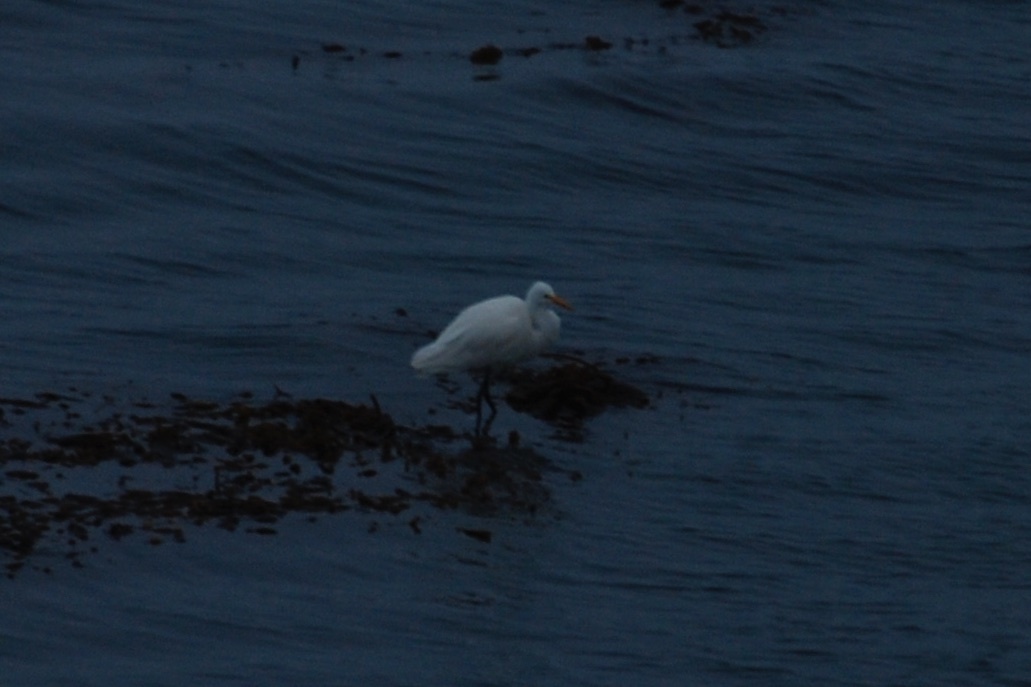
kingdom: Animalia
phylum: Chordata
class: Aves
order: Pelecaniformes
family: Ardeidae
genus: Ardea
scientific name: Ardea alba
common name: Great egret
